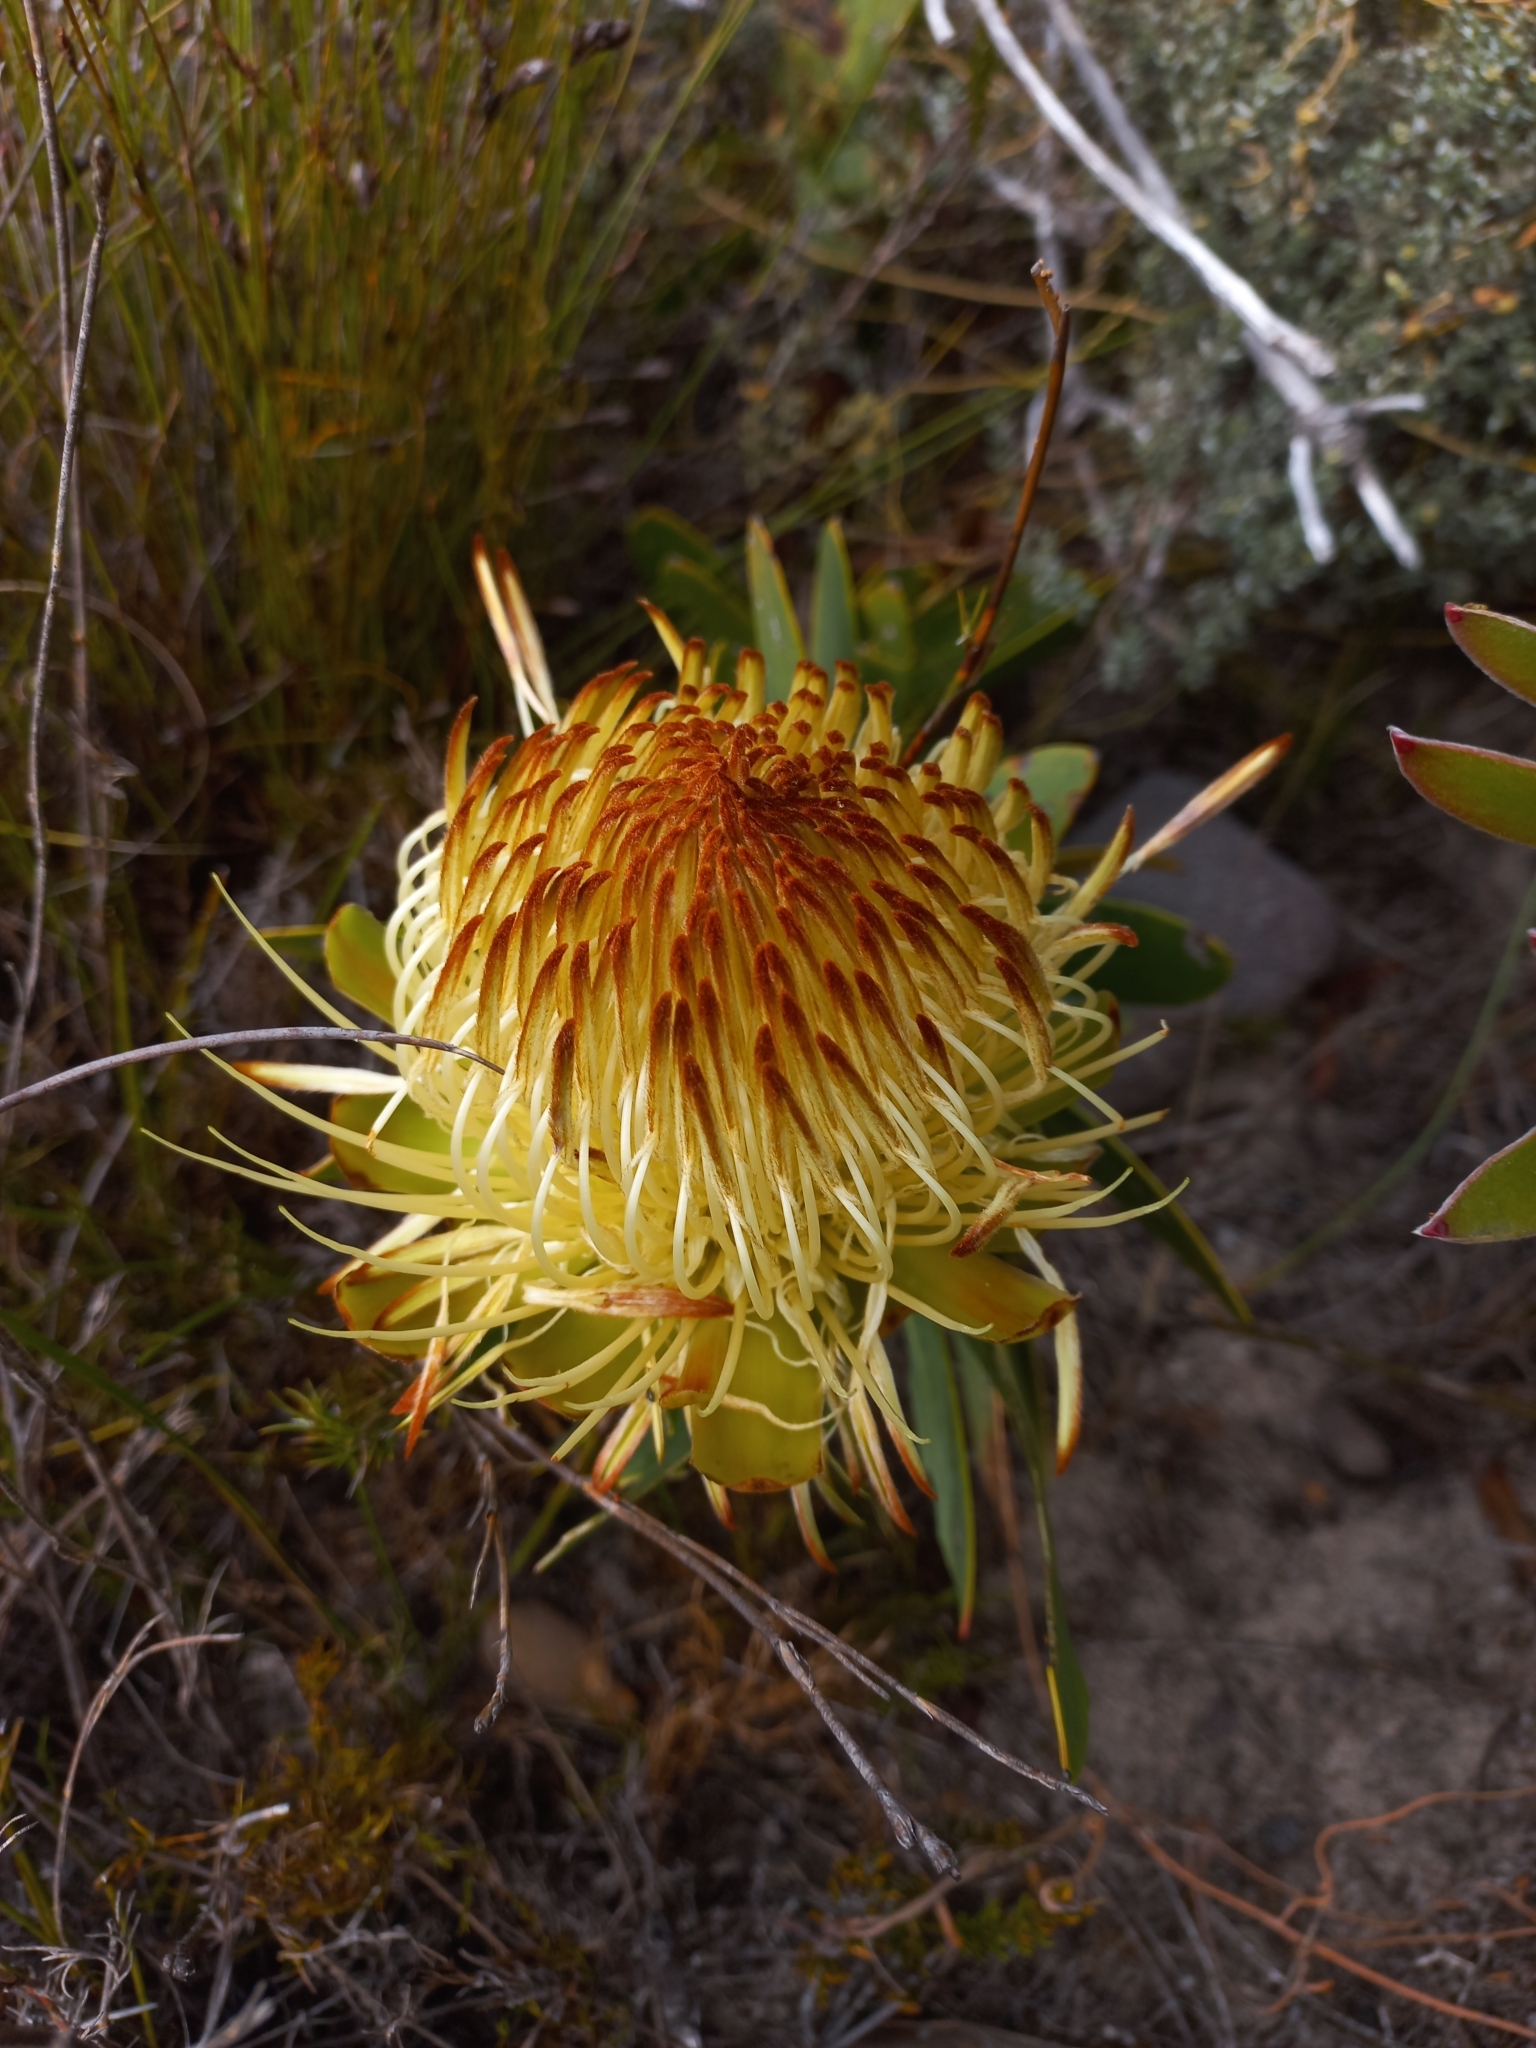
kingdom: Plantae
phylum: Tracheophyta
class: Magnoliopsida
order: Proteales
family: Proteaceae
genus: Protea
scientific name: Protea nitida
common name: Tree protea
